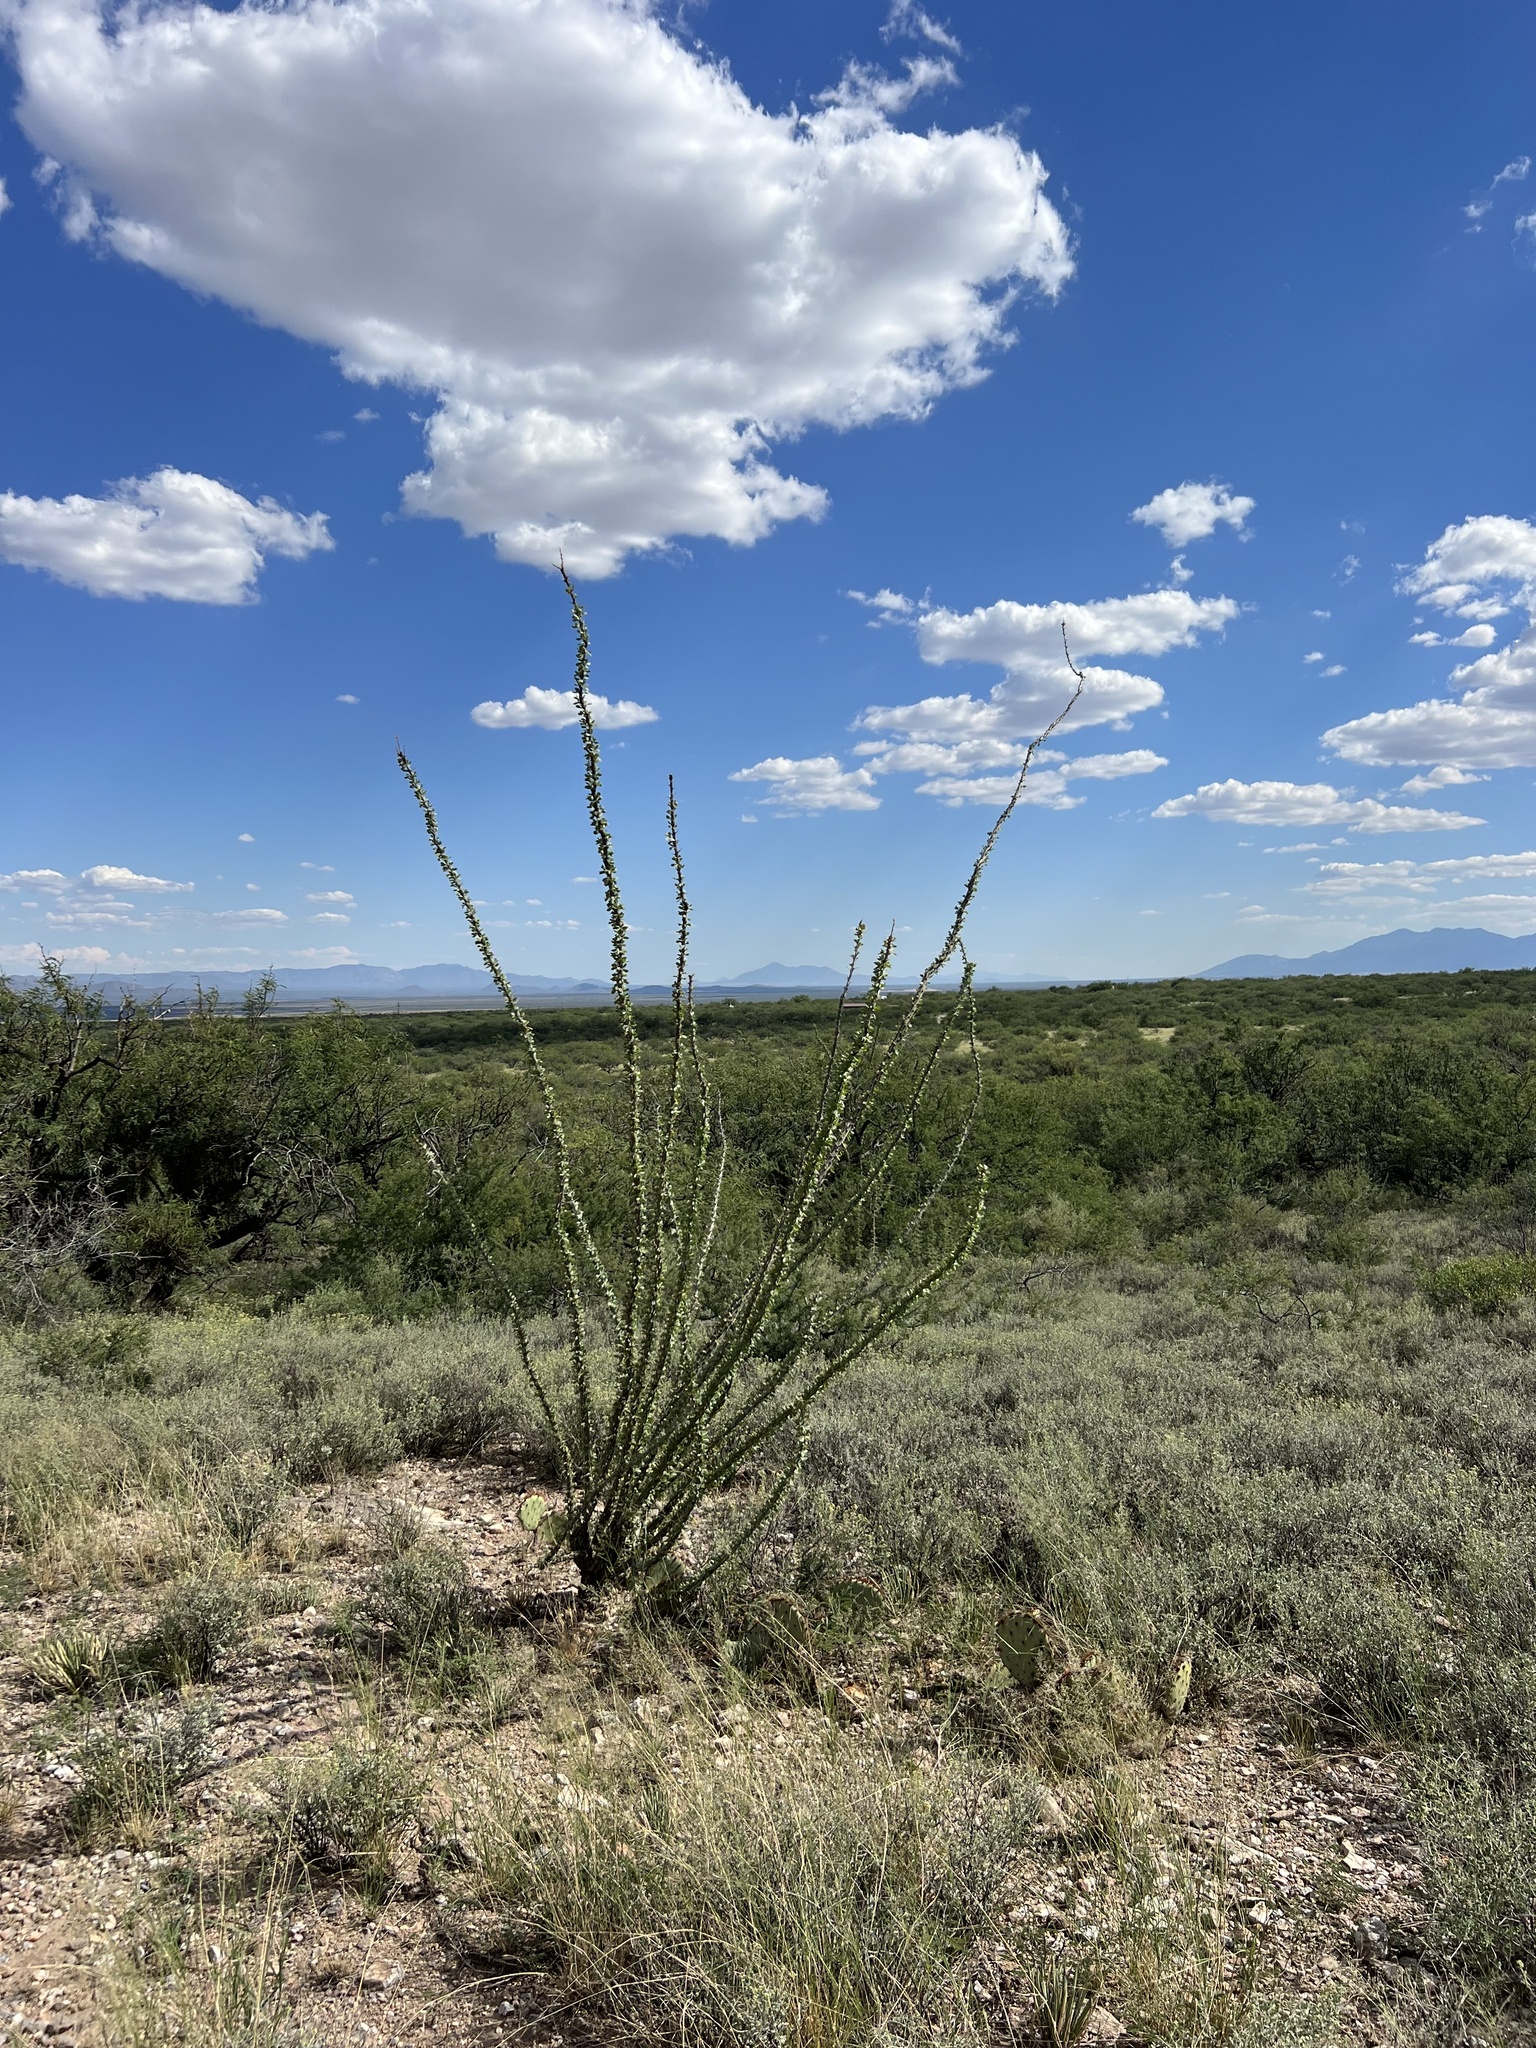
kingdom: Plantae
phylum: Tracheophyta
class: Magnoliopsida
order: Ericales
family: Fouquieriaceae
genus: Fouquieria
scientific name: Fouquieria splendens
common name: Vine-cactus
